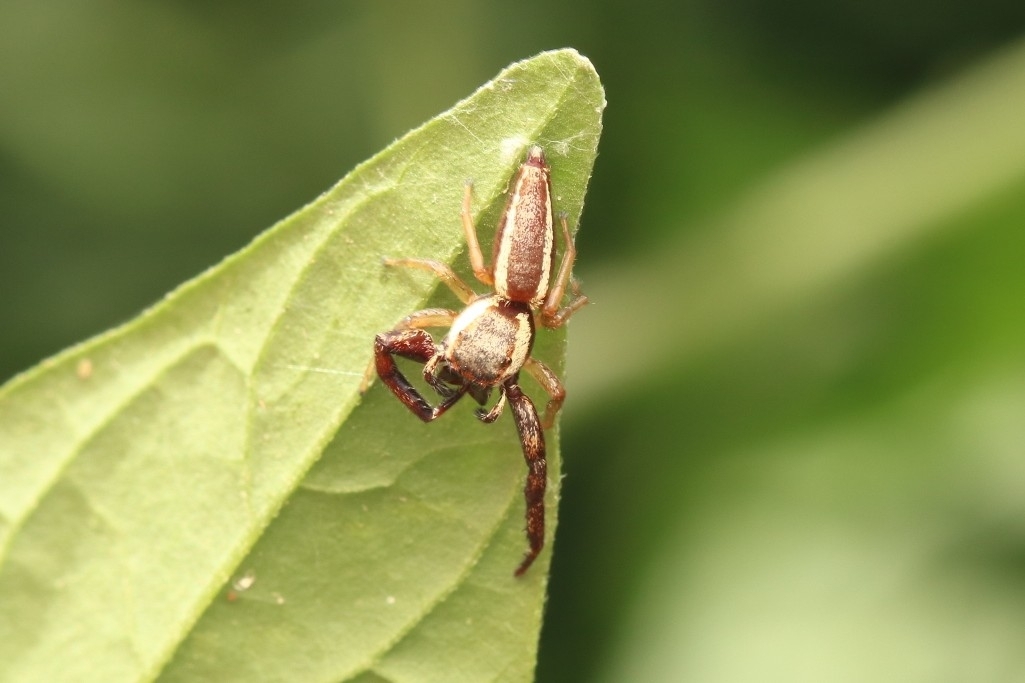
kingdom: Animalia
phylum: Arthropoda
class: Arachnida
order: Araneae
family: Salticidae
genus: Hentzia
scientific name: Hentzia vittata
